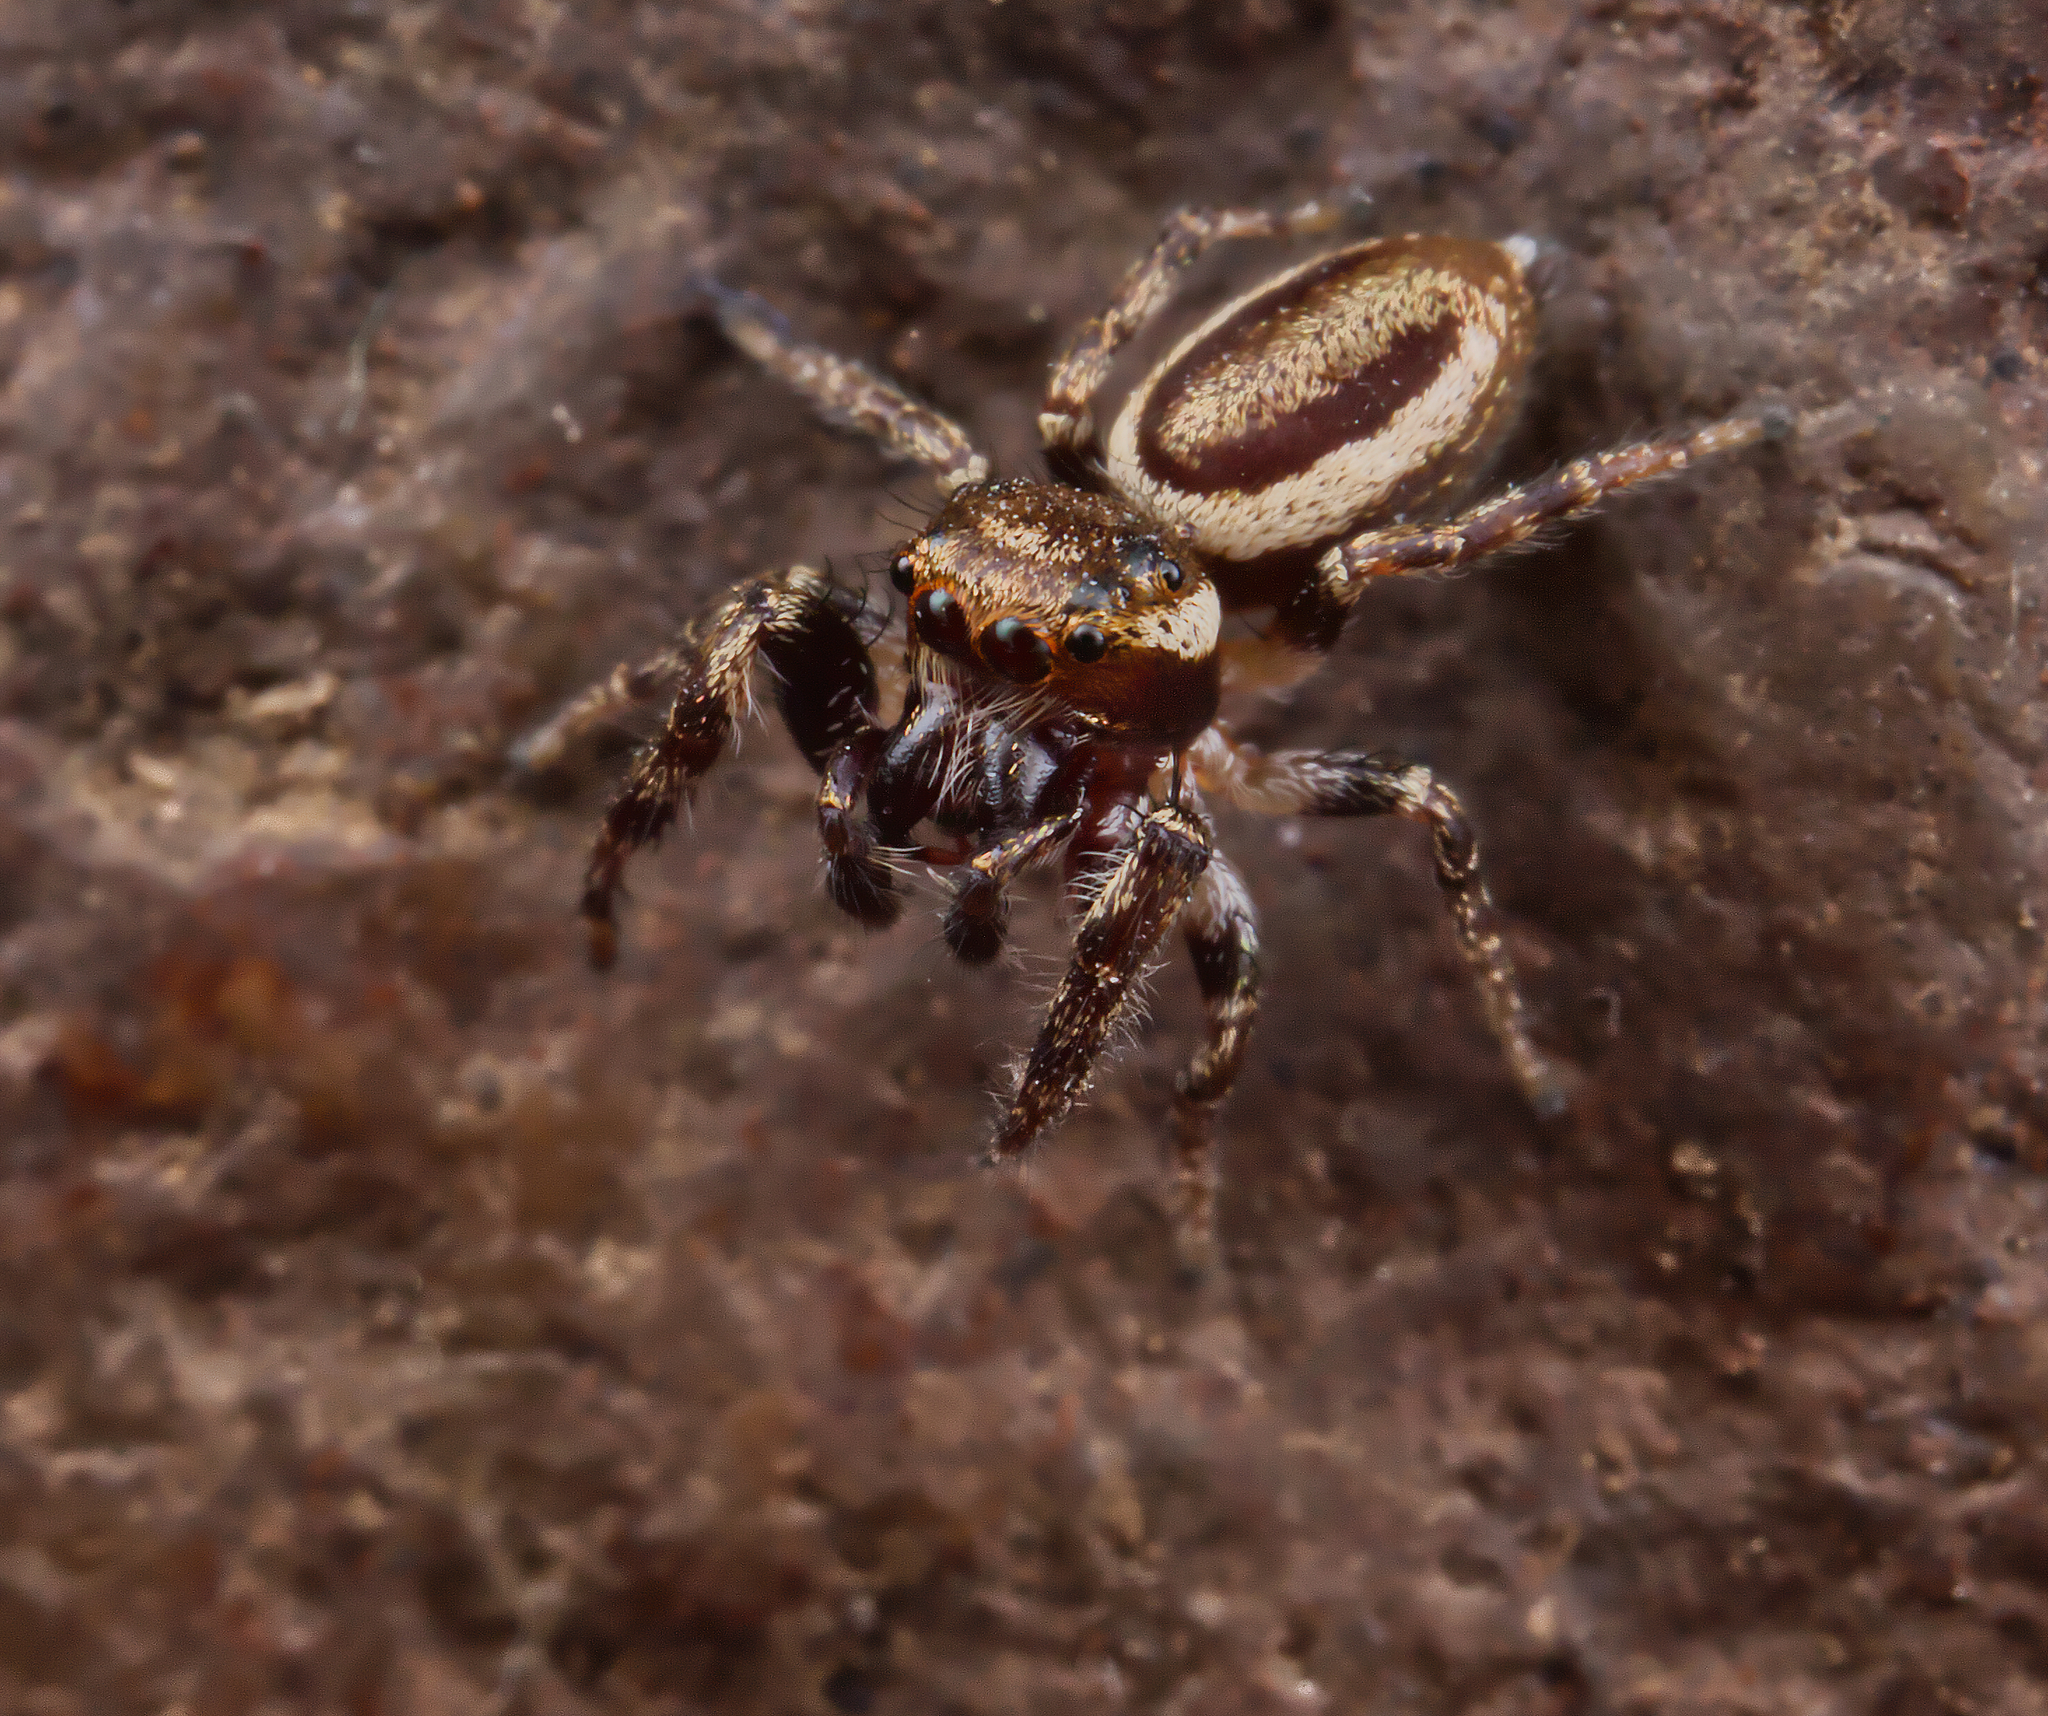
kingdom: Animalia
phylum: Arthropoda
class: Arachnida
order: Araneae
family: Salticidae
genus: Eris
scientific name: Eris militaris
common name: Bronze jumper
